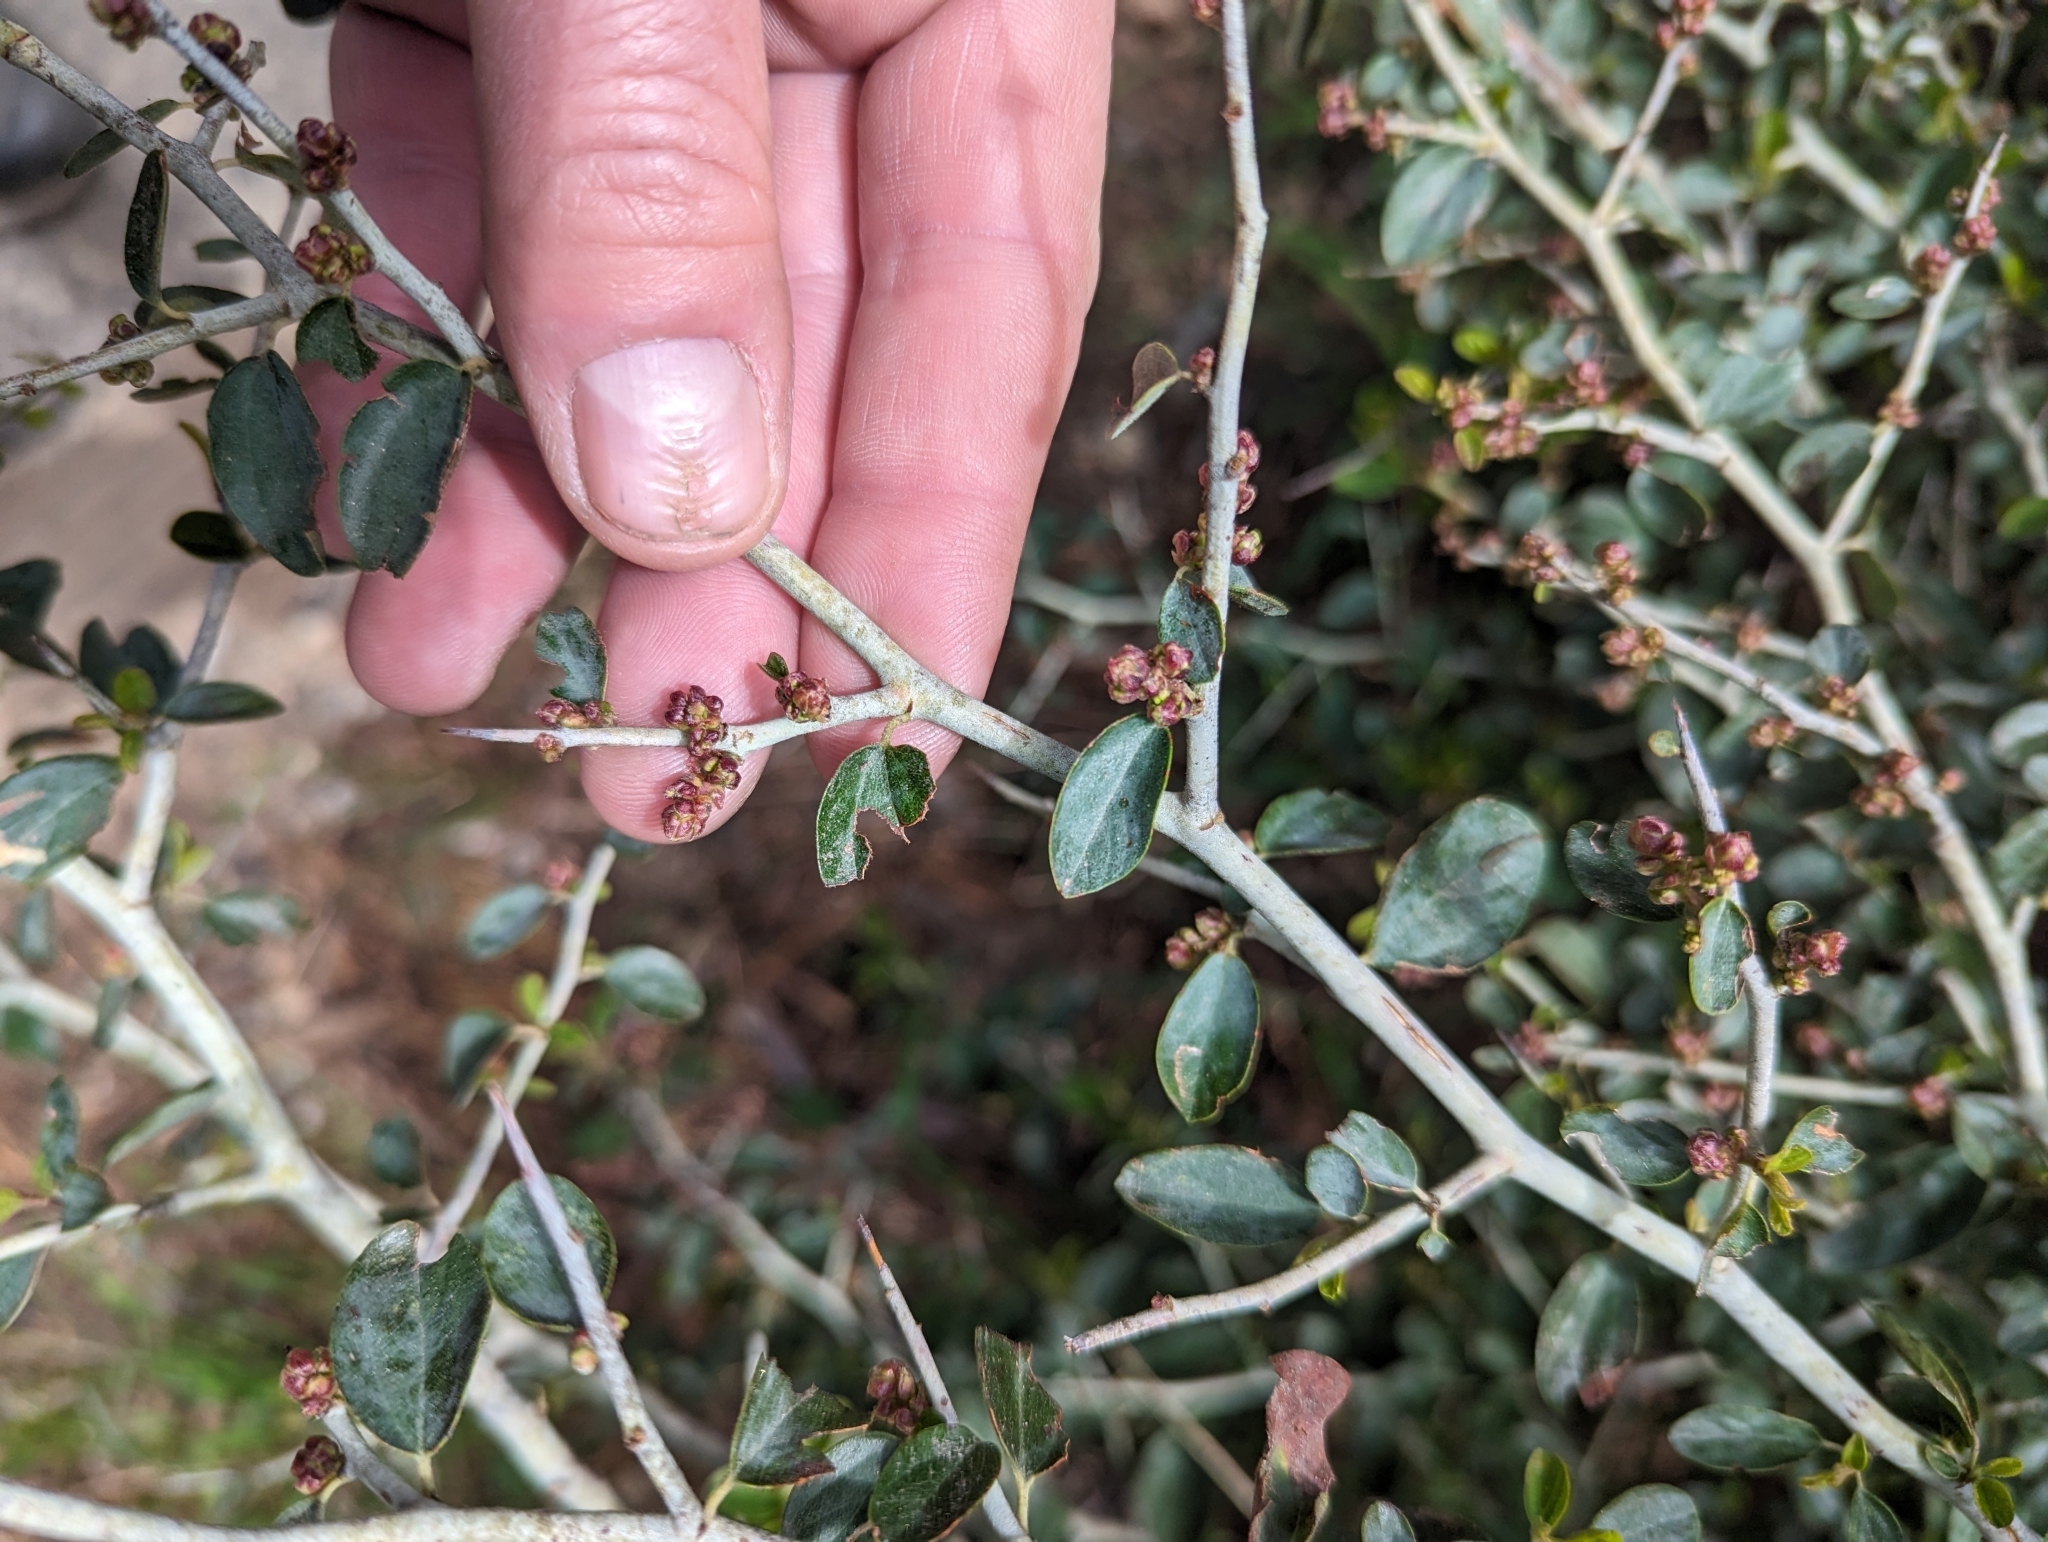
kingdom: Plantae
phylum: Tracheophyta
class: Magnoliopsida
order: Rosales
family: Rhamnaceae
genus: Ceanothus
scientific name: Ceanothus cordulatus
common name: Mountain whitethorn
